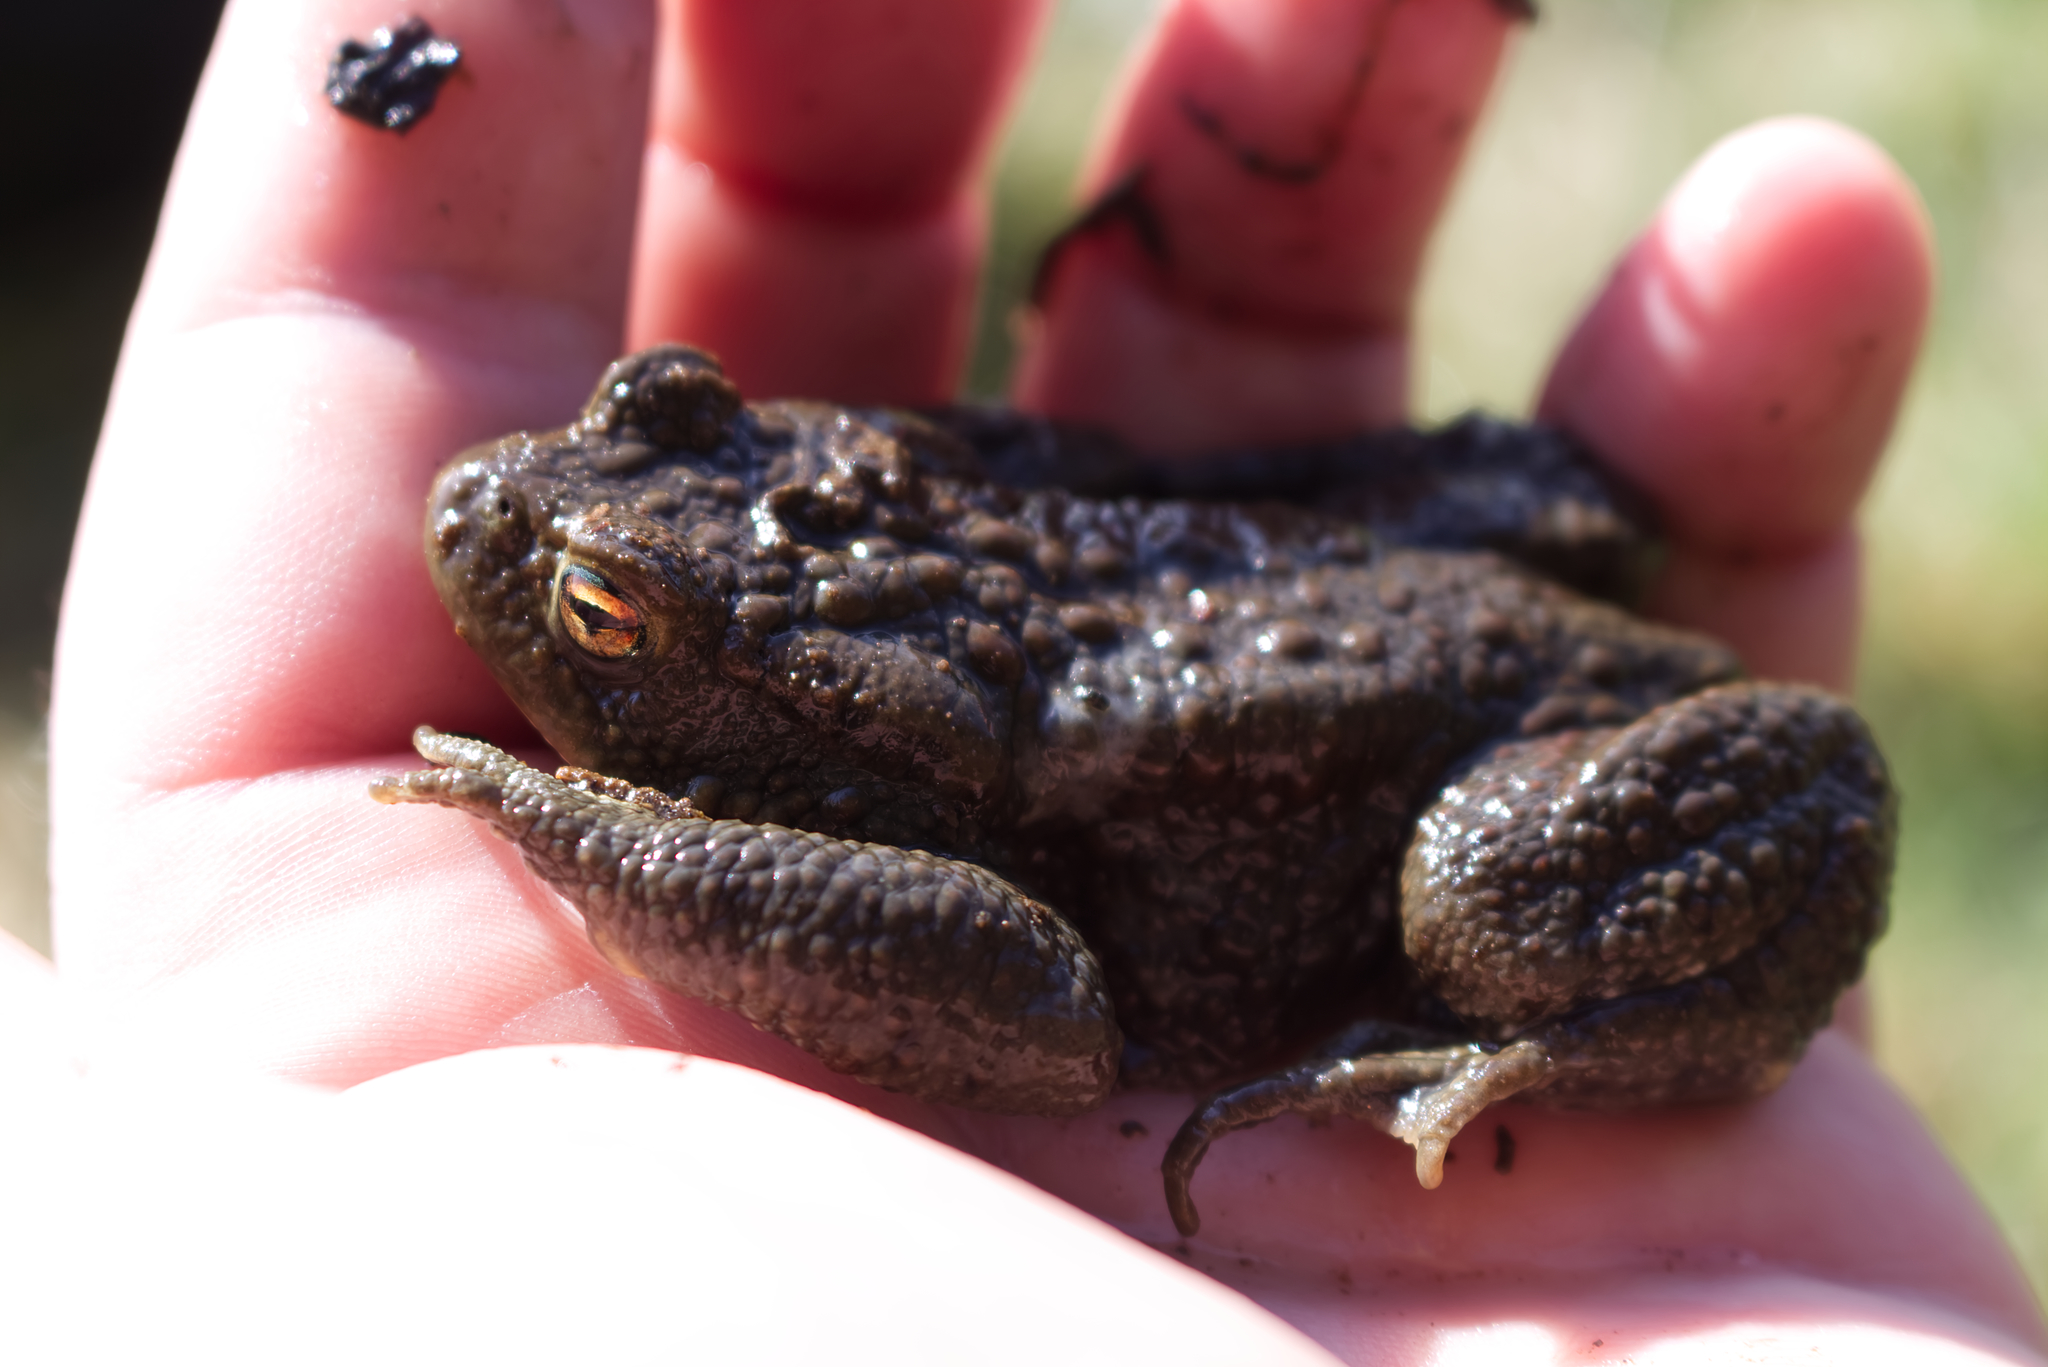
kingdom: Animalia
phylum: Chordata
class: Amphibia
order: Anura
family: Bufonidae
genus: Bufo
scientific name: Bufo bufo
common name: Common toad
